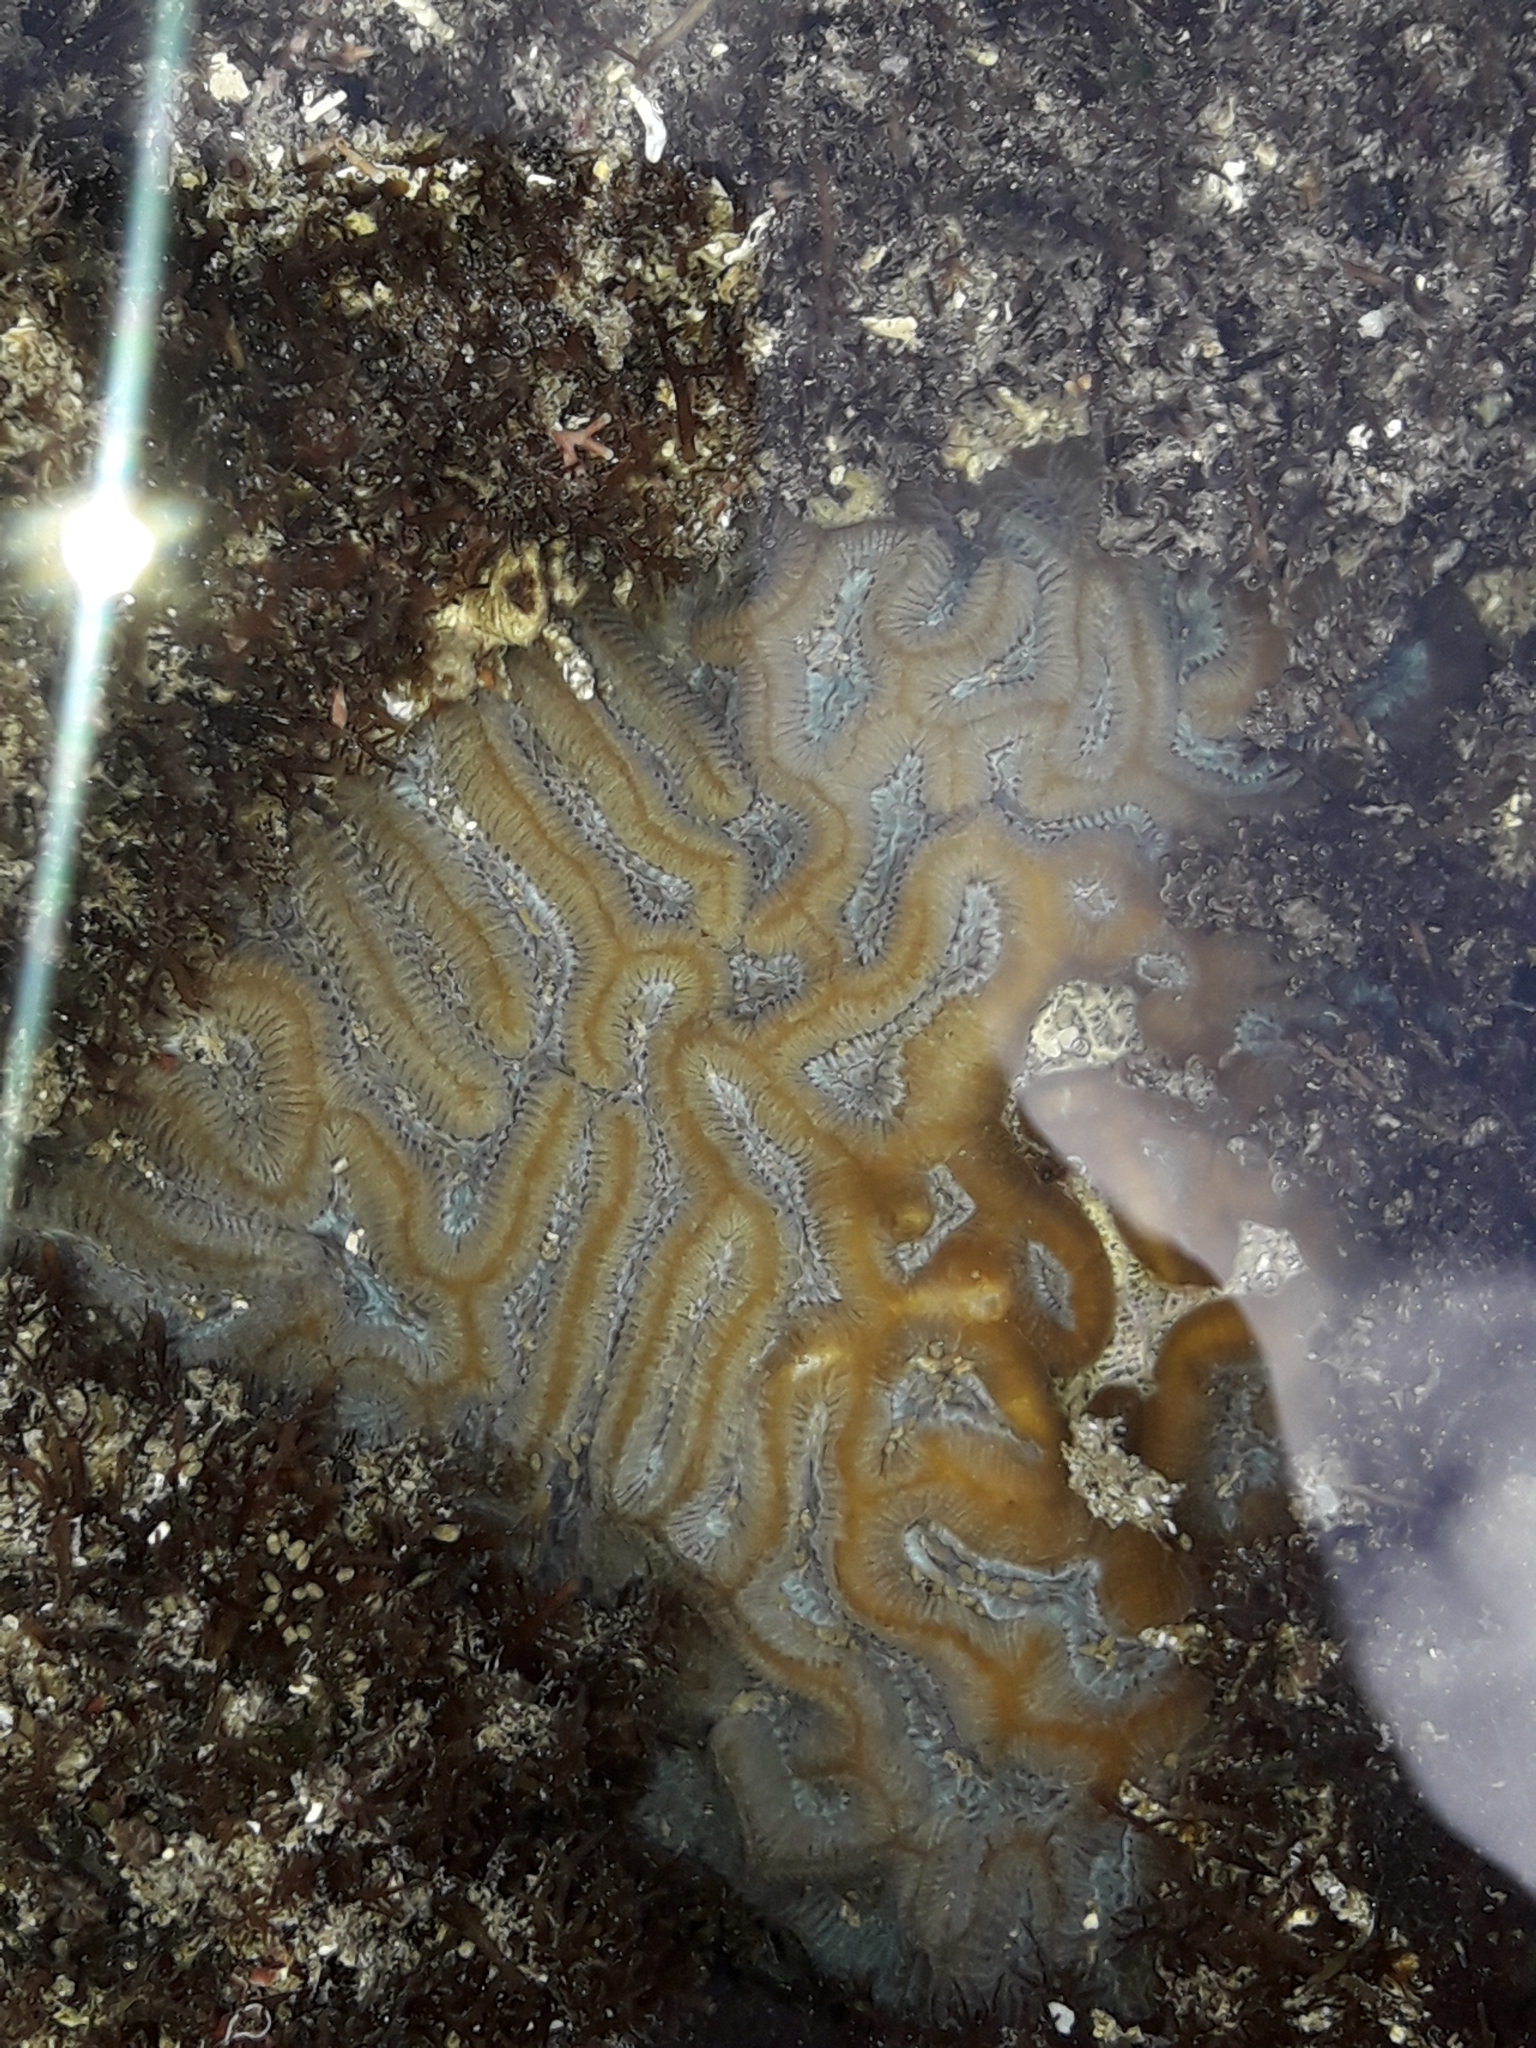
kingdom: Animalia
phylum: Cnidaria
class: Anthozoa
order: Scleractinia
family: Merulinidae
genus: Paragoniastrea
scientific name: Paragoniastrea australensis
